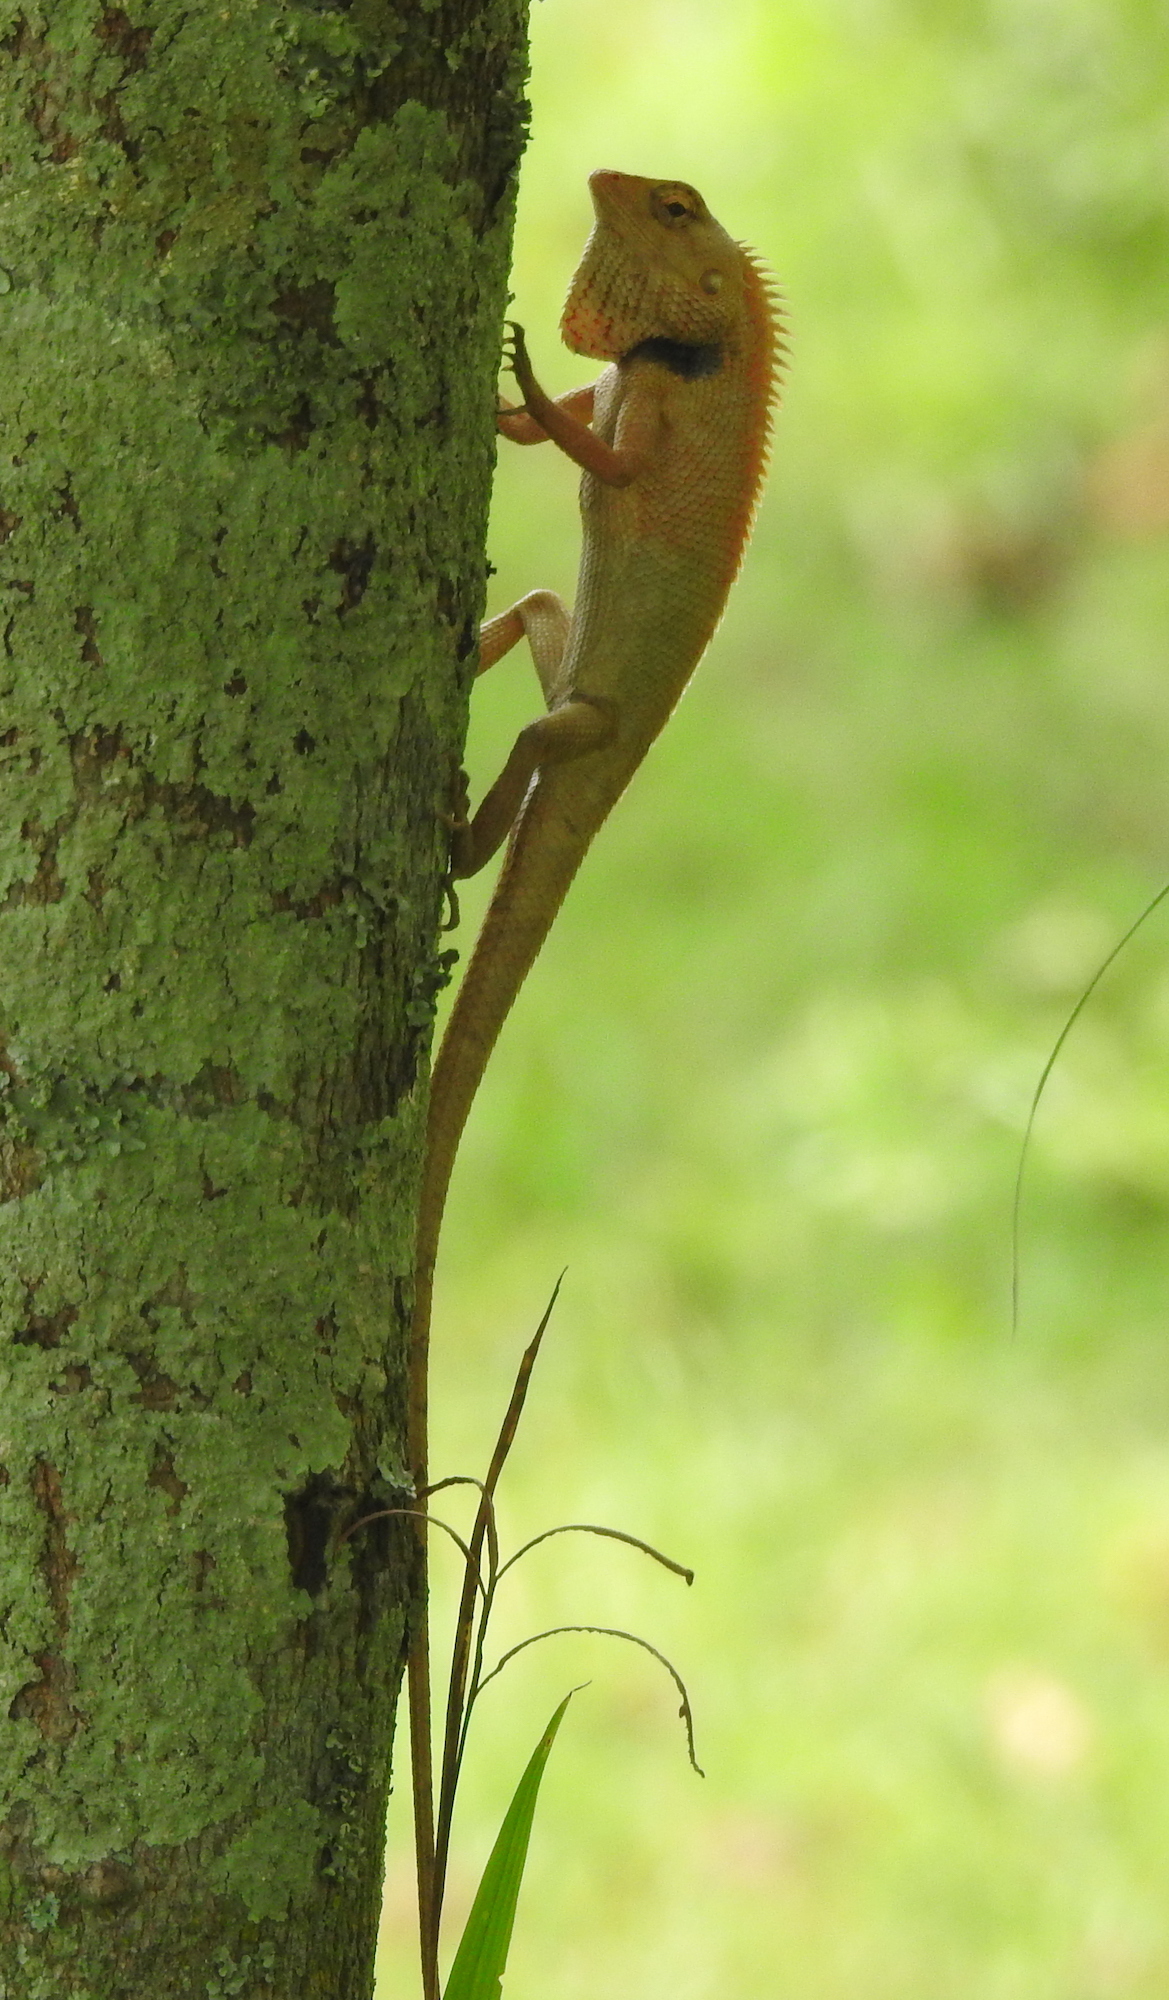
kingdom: Animalia
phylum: Chordata
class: Squamata
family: Agamidae
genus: Calotes
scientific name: Calotes versicolor
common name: Oriental garden lizard
